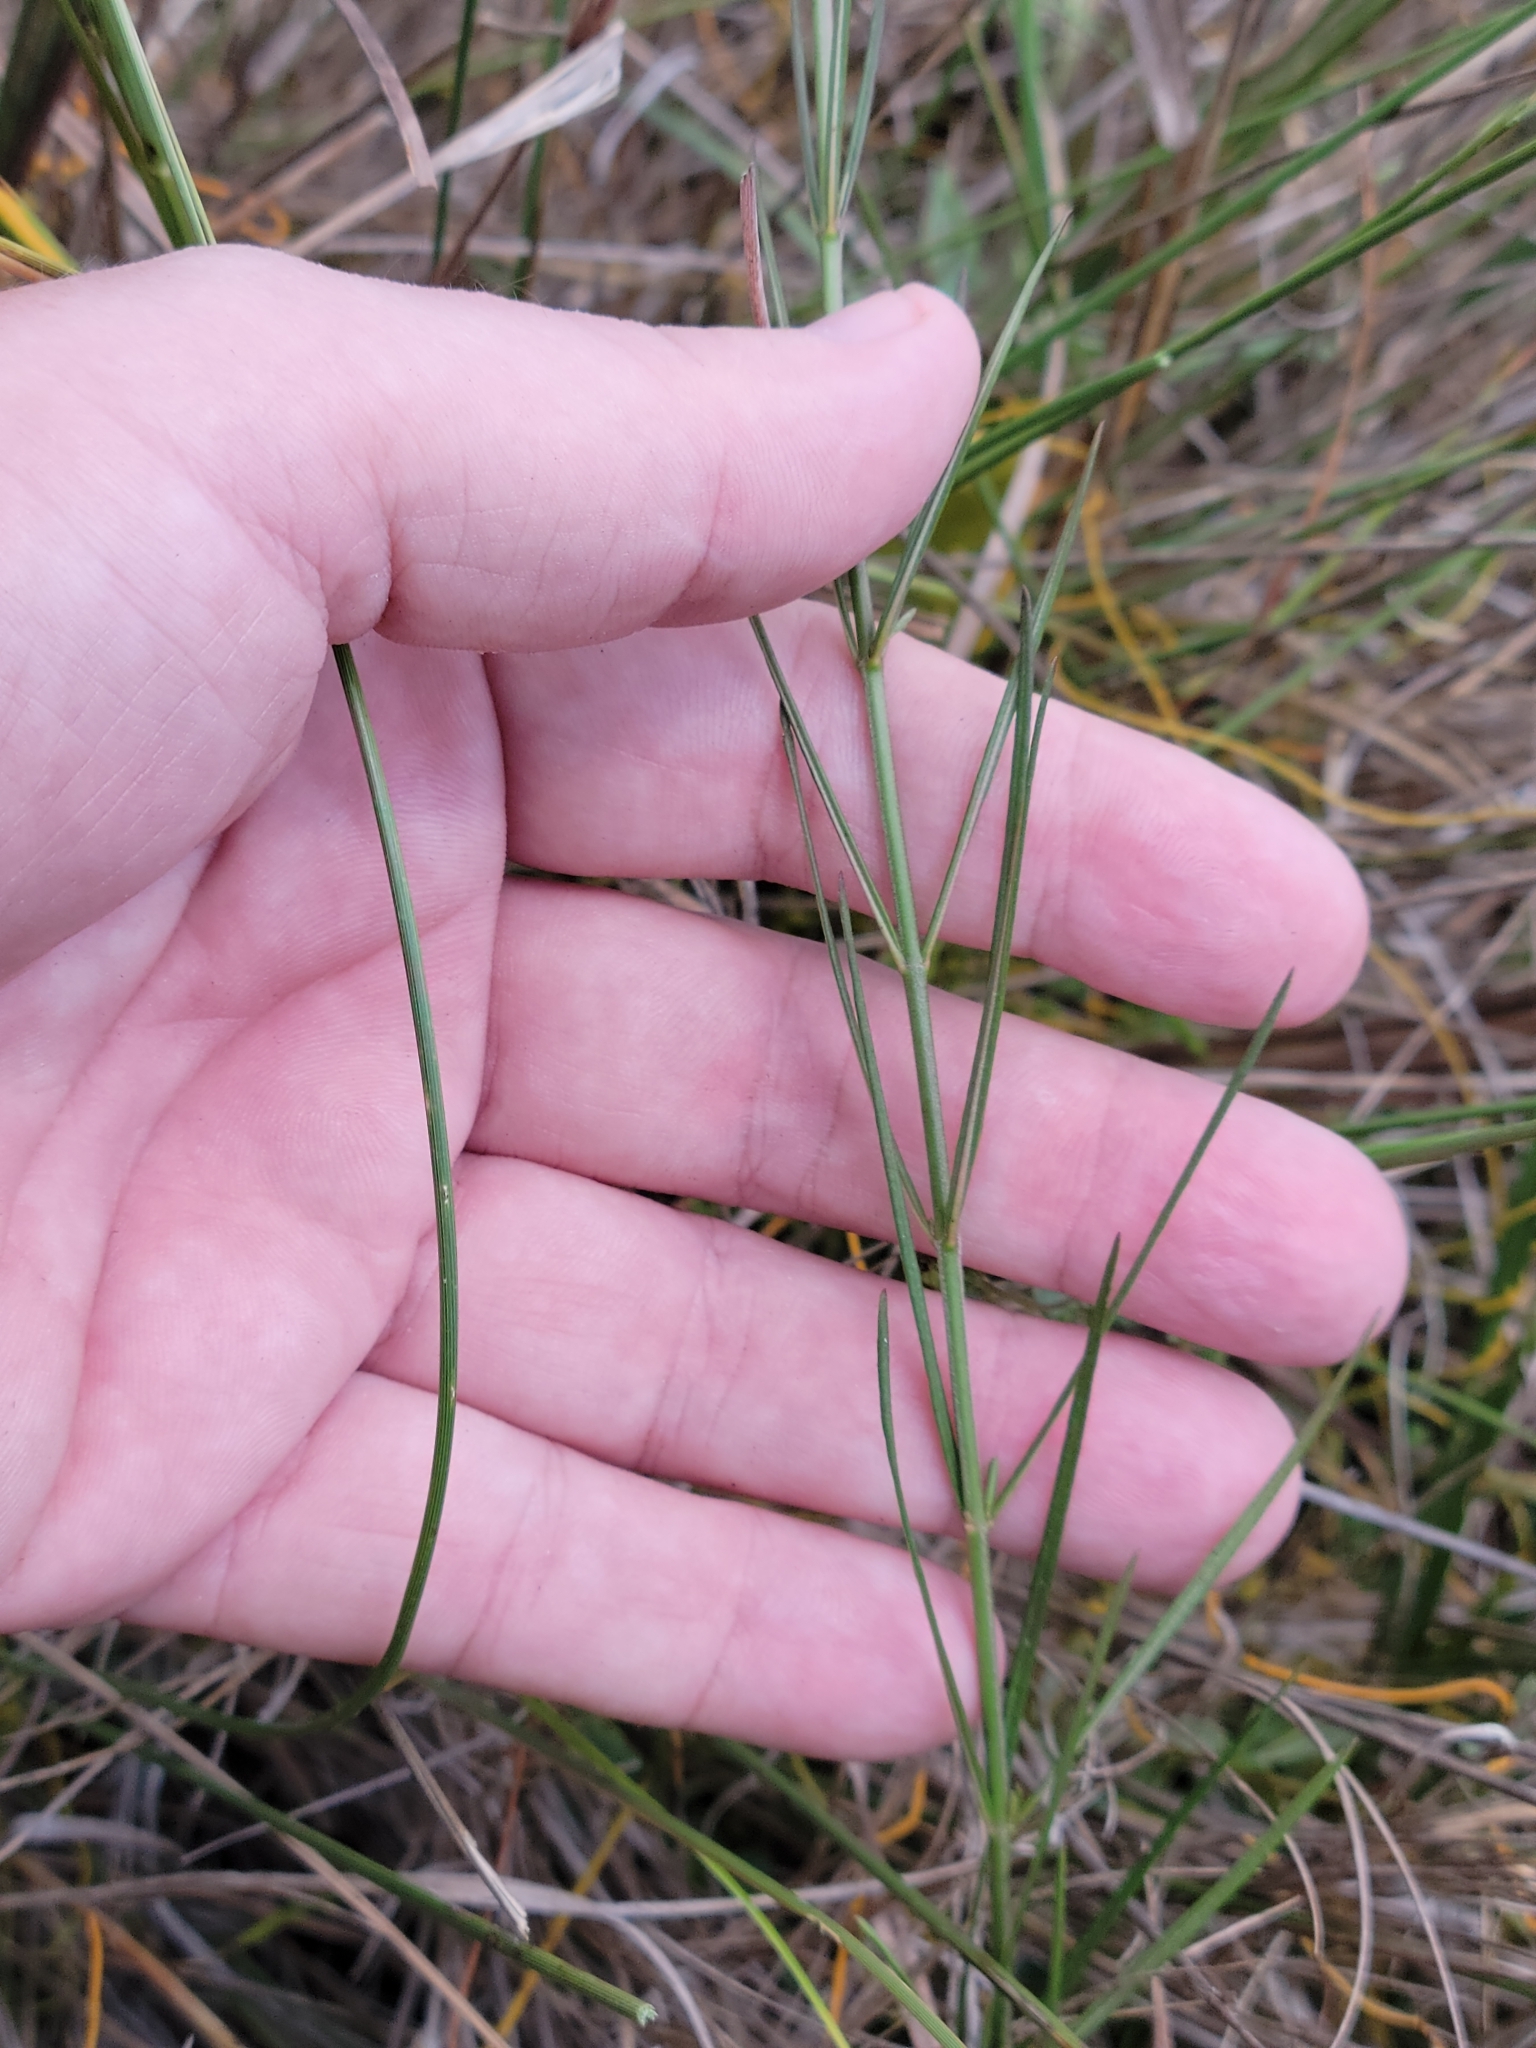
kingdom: Plantae
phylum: Tracheophyta
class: Magnoliopsida
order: Gentianales
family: Apocynaceae
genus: Asclepias
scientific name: Asclepias verticillata
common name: Eastern whorled milkweed
